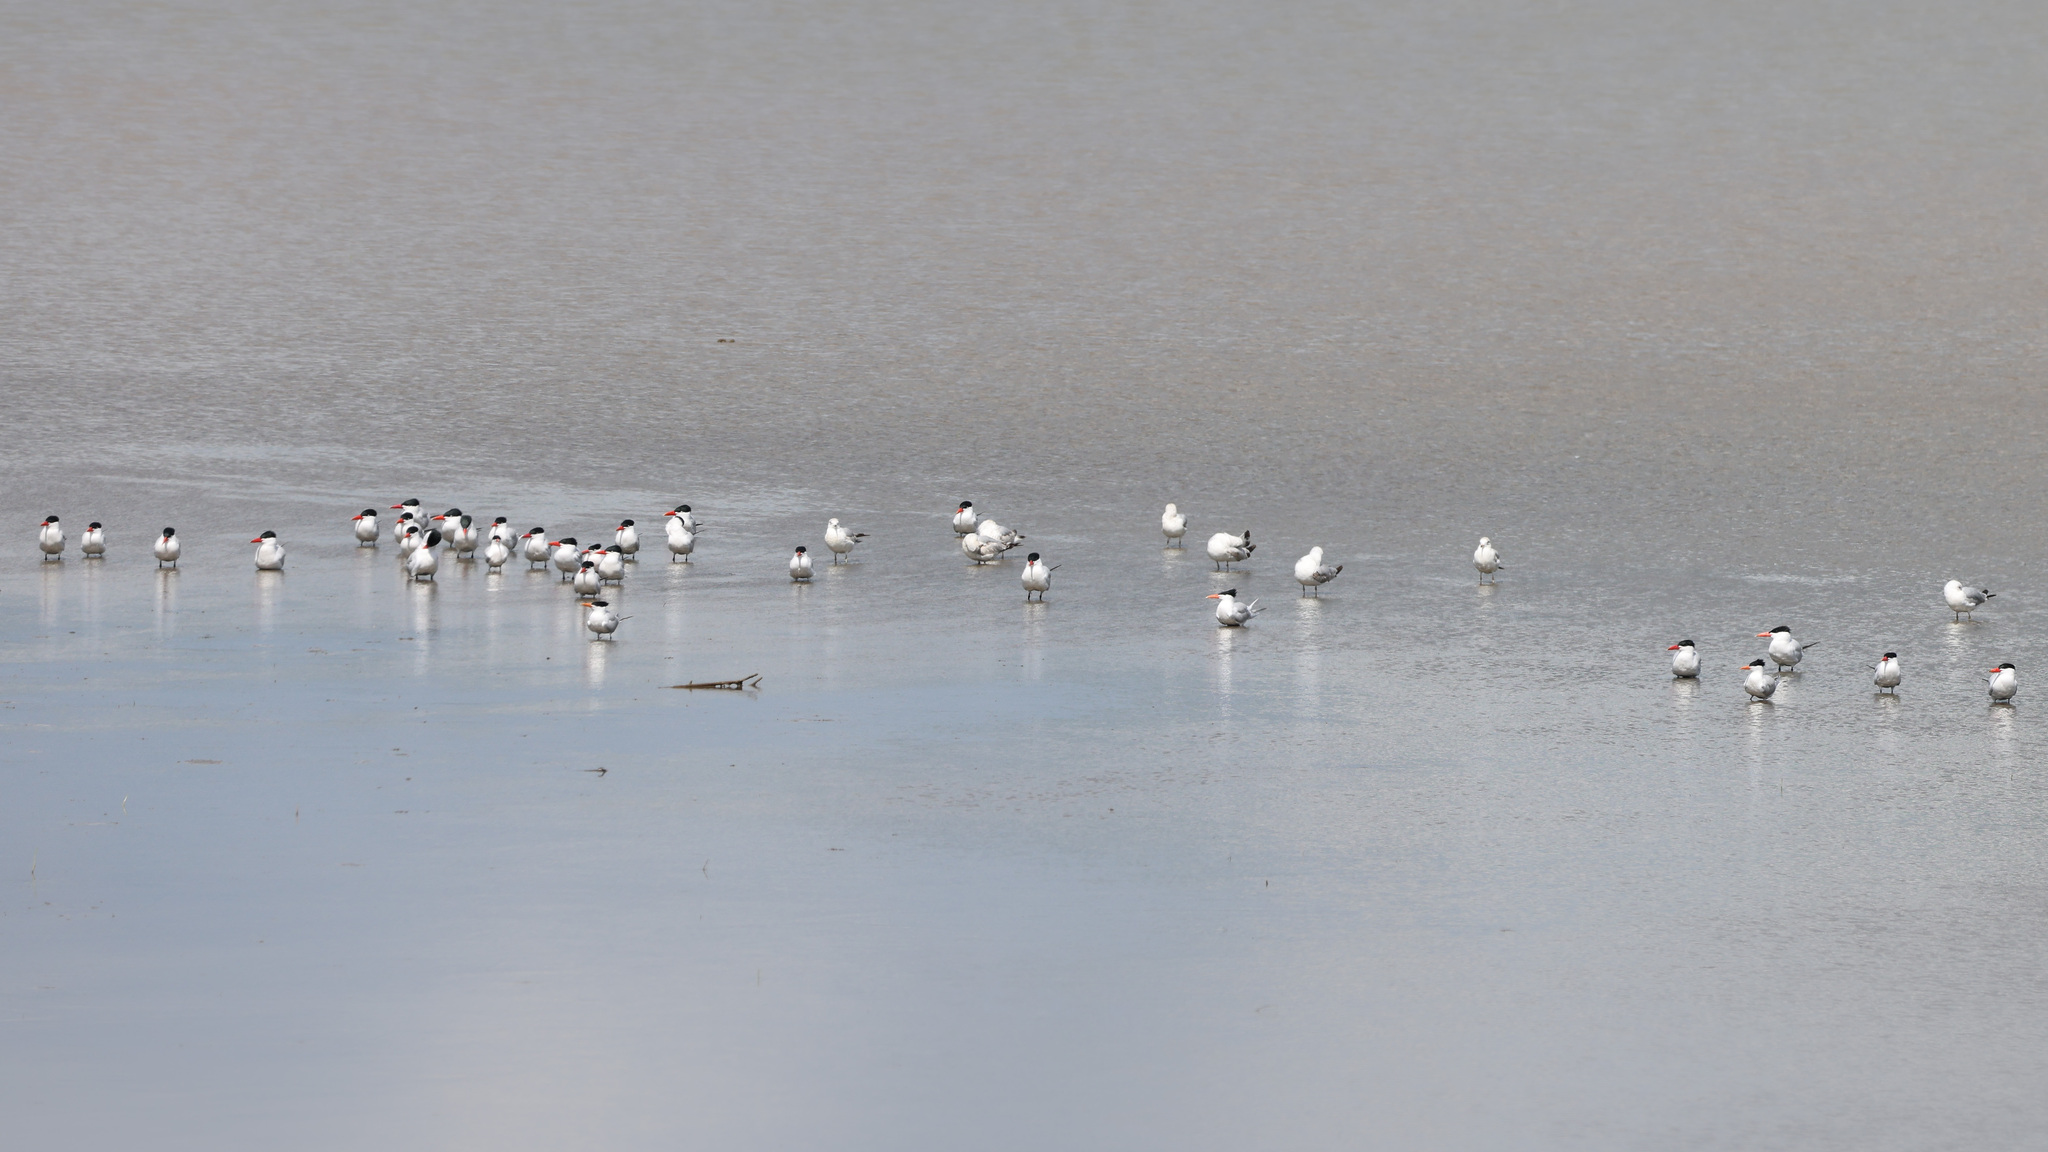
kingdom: Animalia
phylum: Chordata
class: Aves
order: Charadriiformes
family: Laridae
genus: Hydroprogne
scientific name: Hydroprogne caspia
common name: Caspian tern
